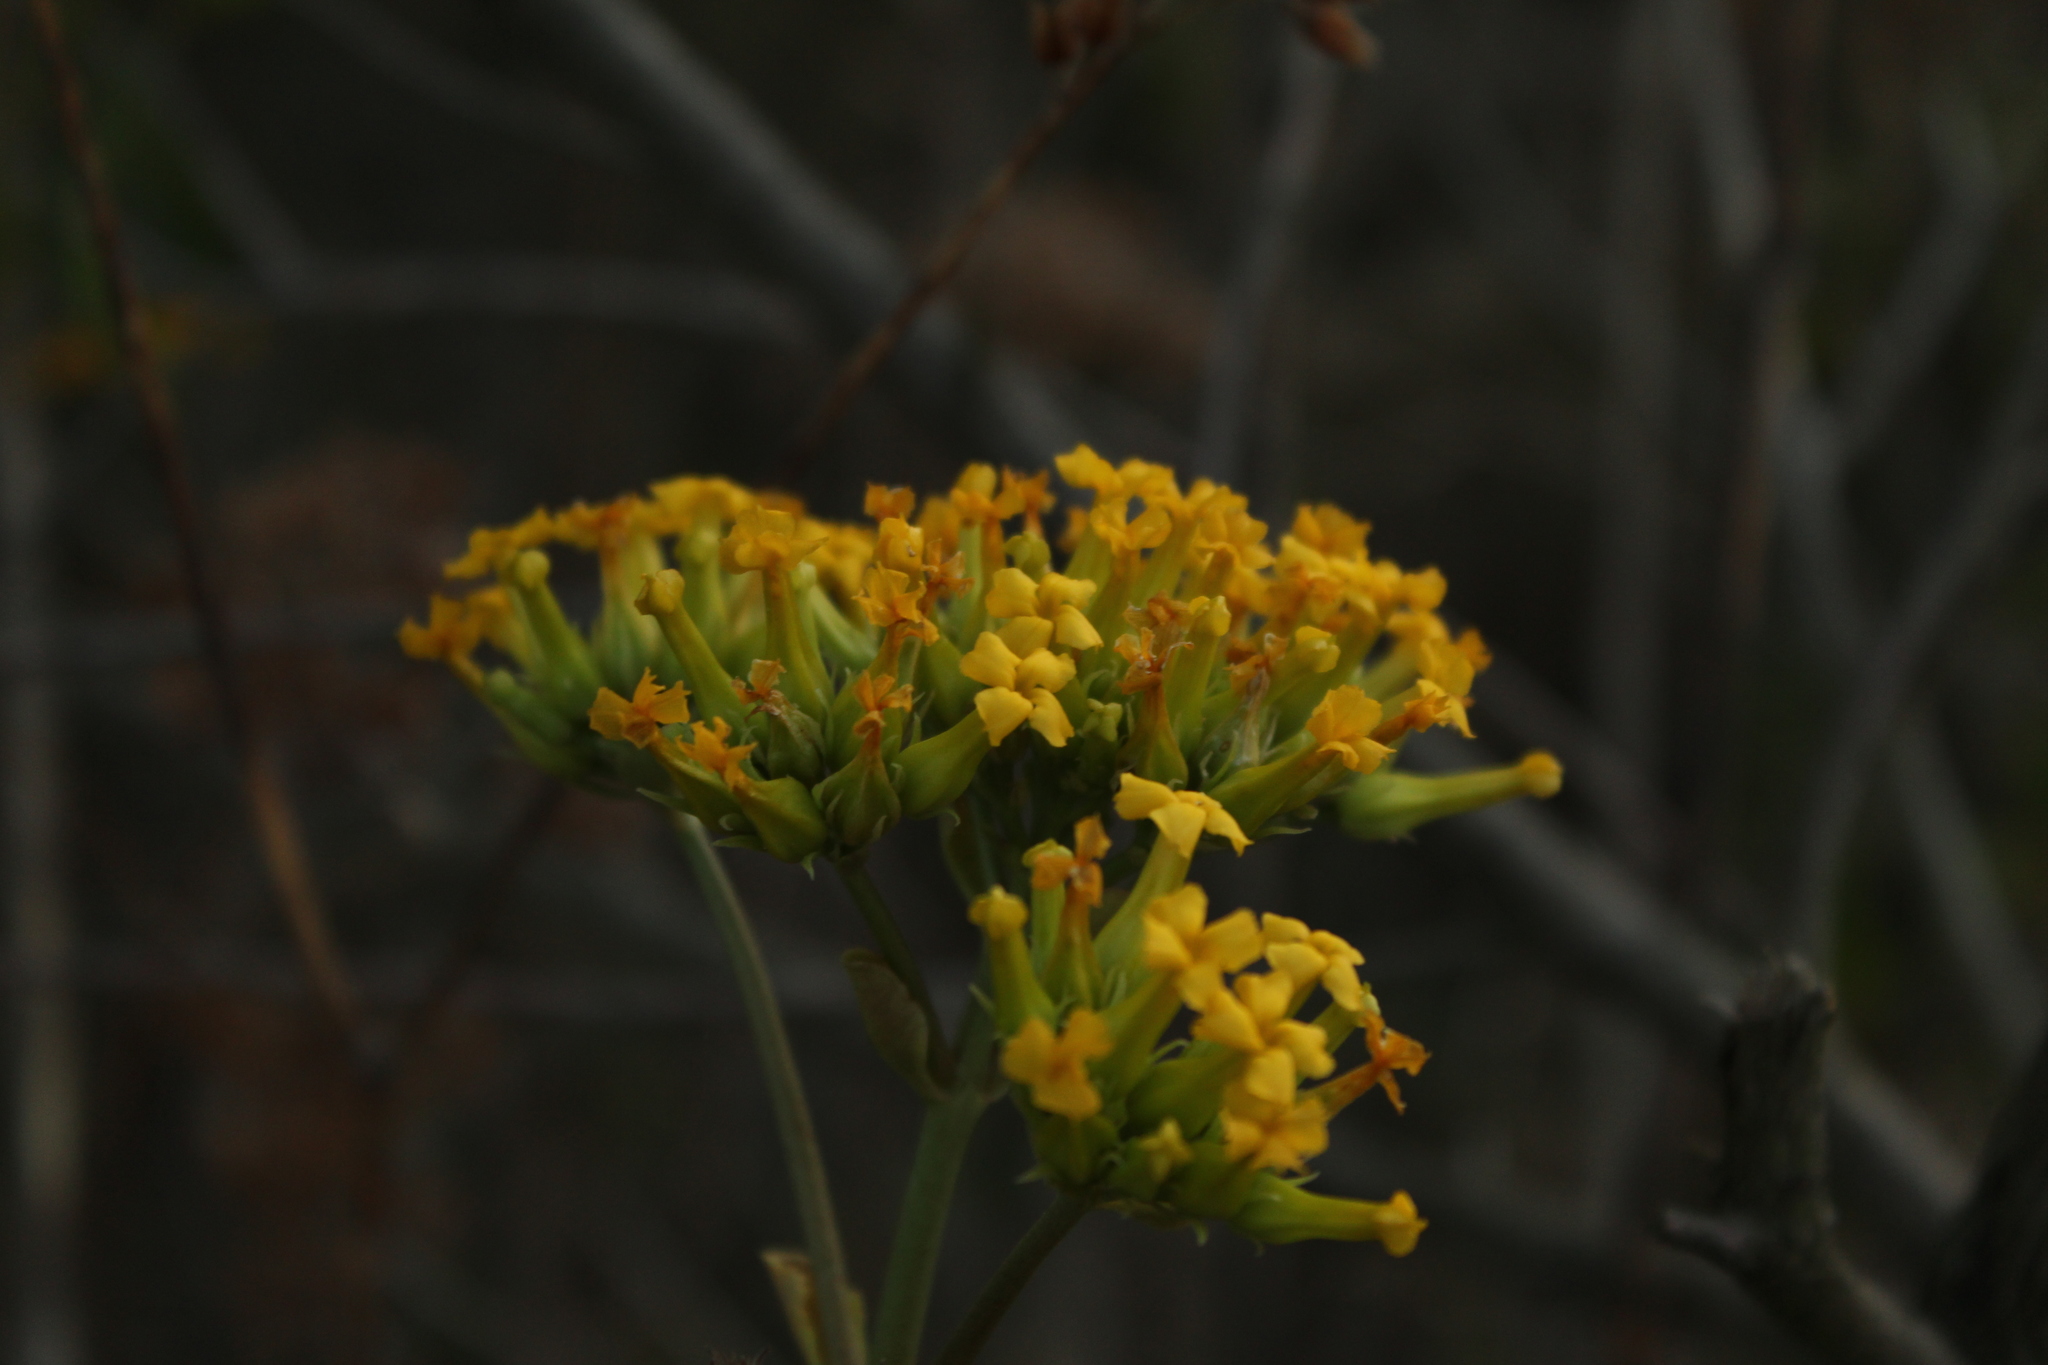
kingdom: Plantae
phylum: Tracheophyta
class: Magnoliopsida
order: Saxifragales
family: Crassulaceae
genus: Kalanchoe
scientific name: Kalanchoe densiflora
